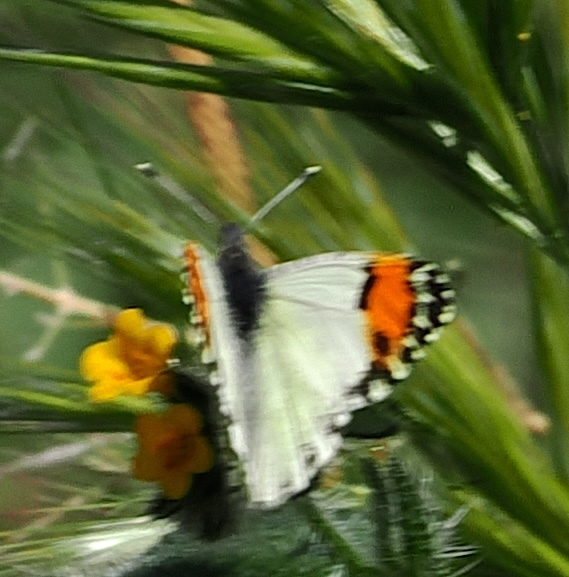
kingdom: Animalia
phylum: Arthropoda
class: Insecta
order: Lepidoptera
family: Pieridae
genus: Anthocharis
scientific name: Anthocharis sara
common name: Sara's orangetip
